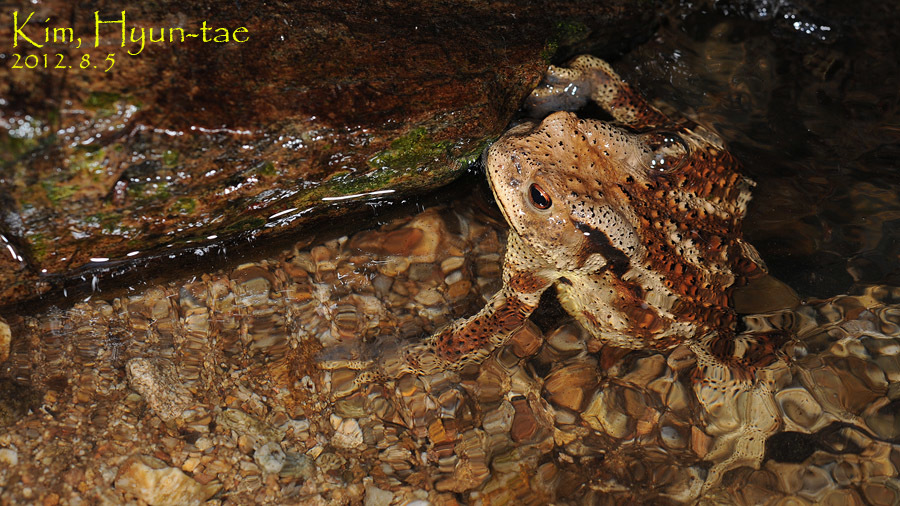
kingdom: Animalia
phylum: Chordata
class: Amphibia
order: Anura
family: Bufonidae
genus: Bufo
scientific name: Bufo gargarizans
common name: Asiatic toad
